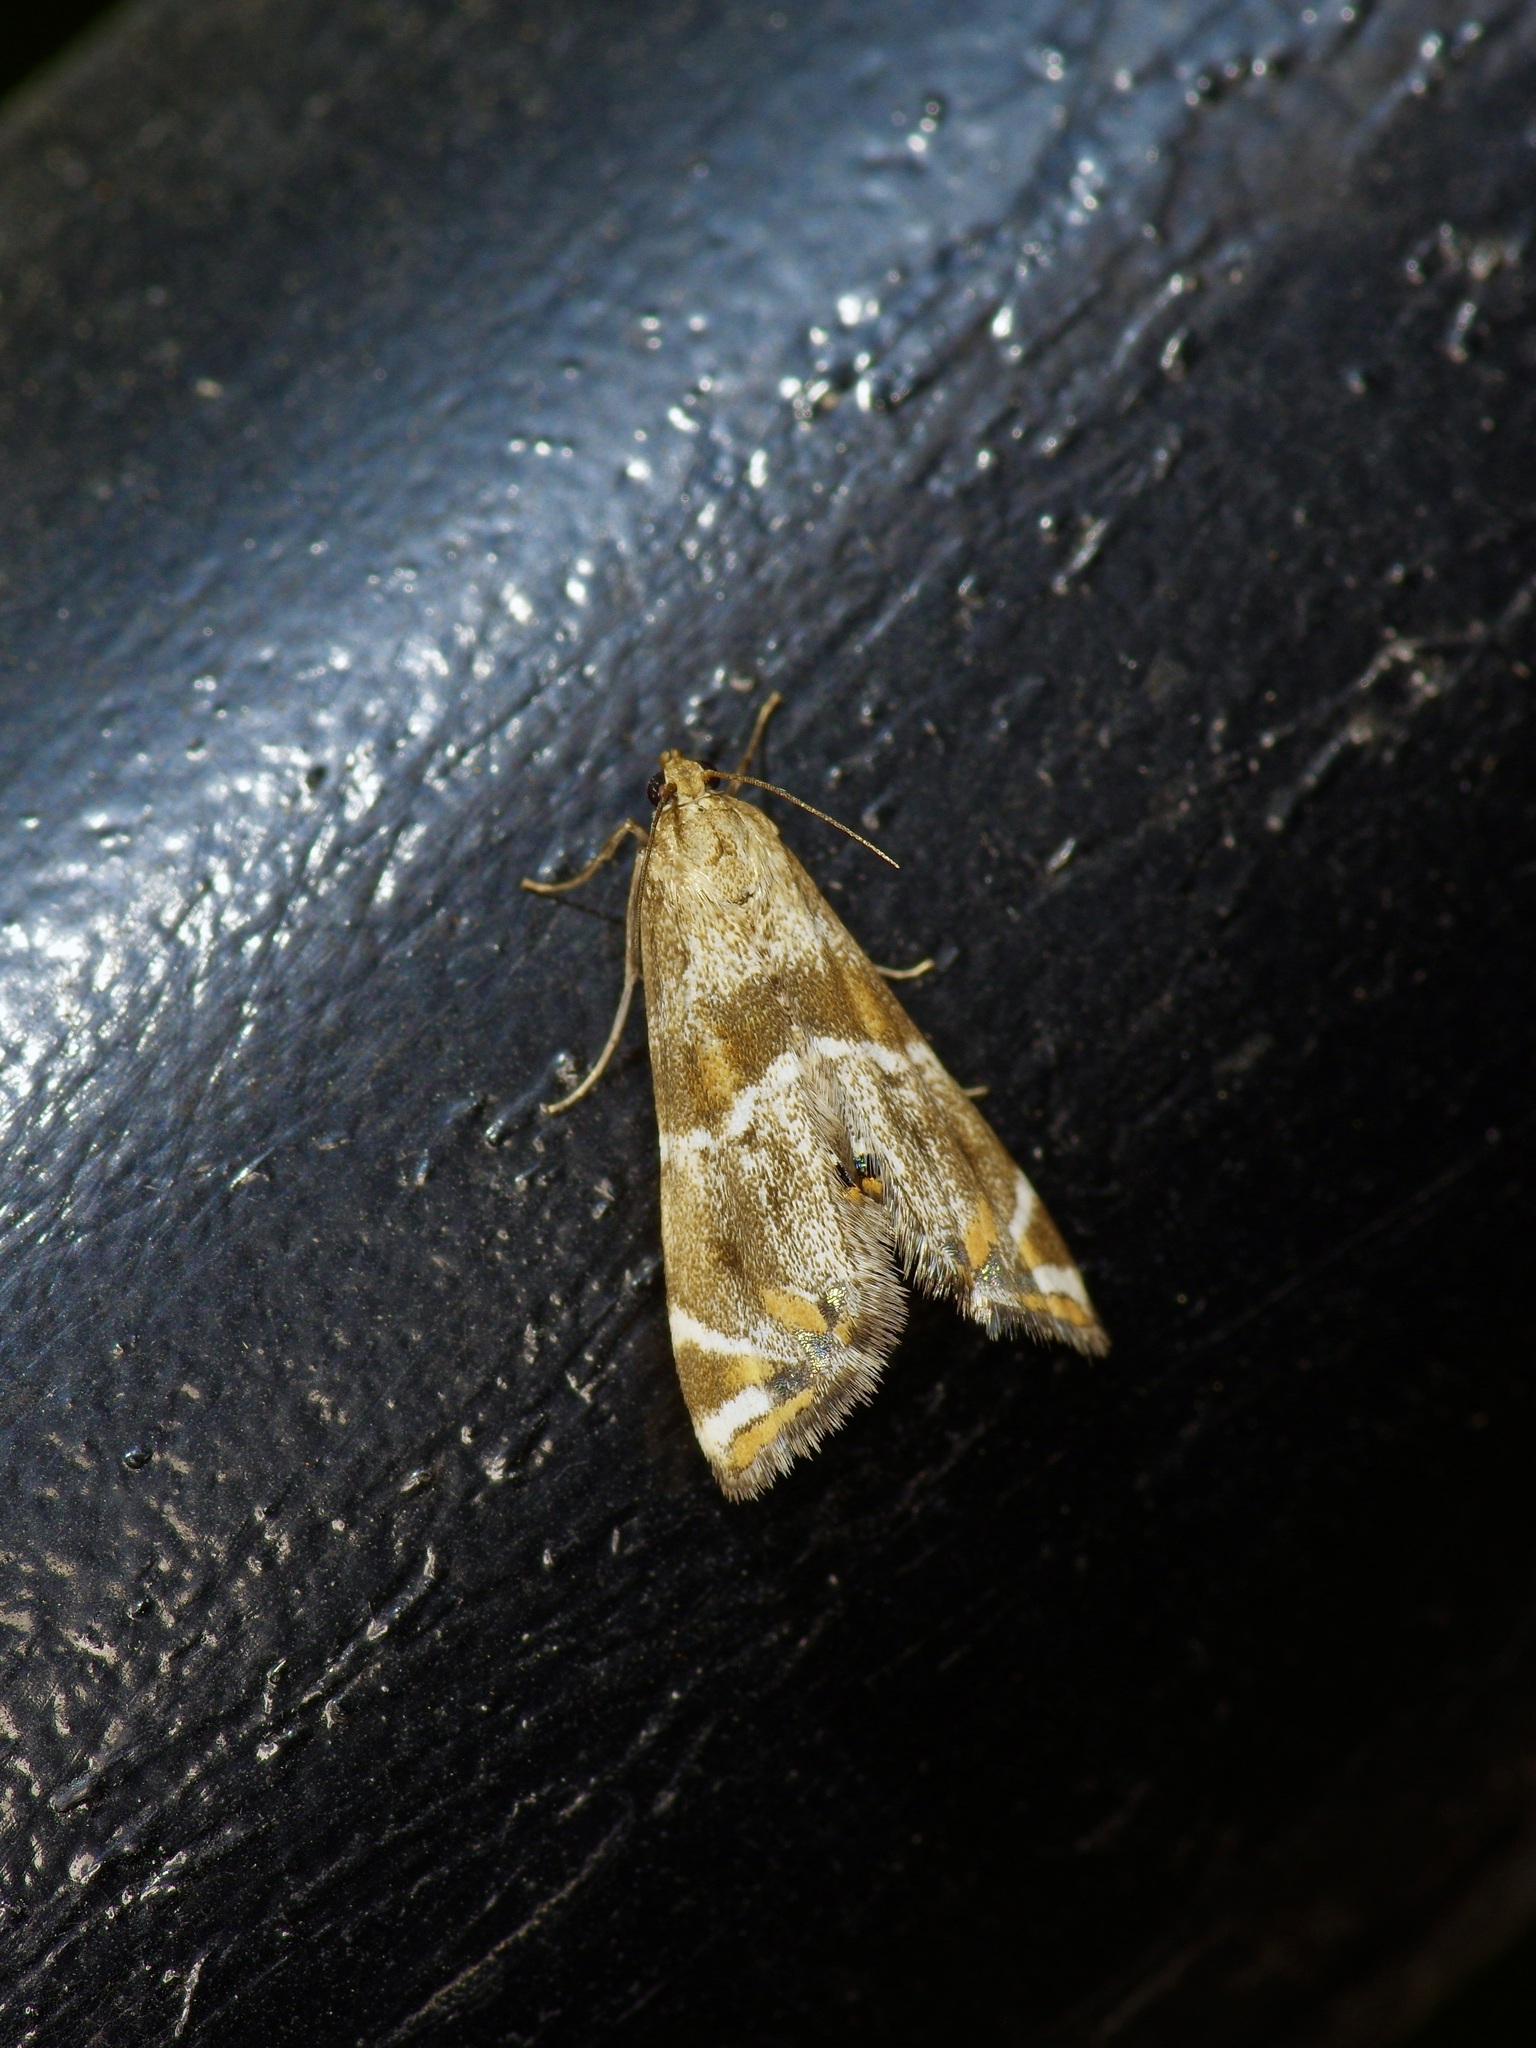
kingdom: Animalia
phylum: Arthropoda
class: Insecta
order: Lepidoptera
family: Crambidae
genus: Petrophila
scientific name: Petrophila jaliscalis
